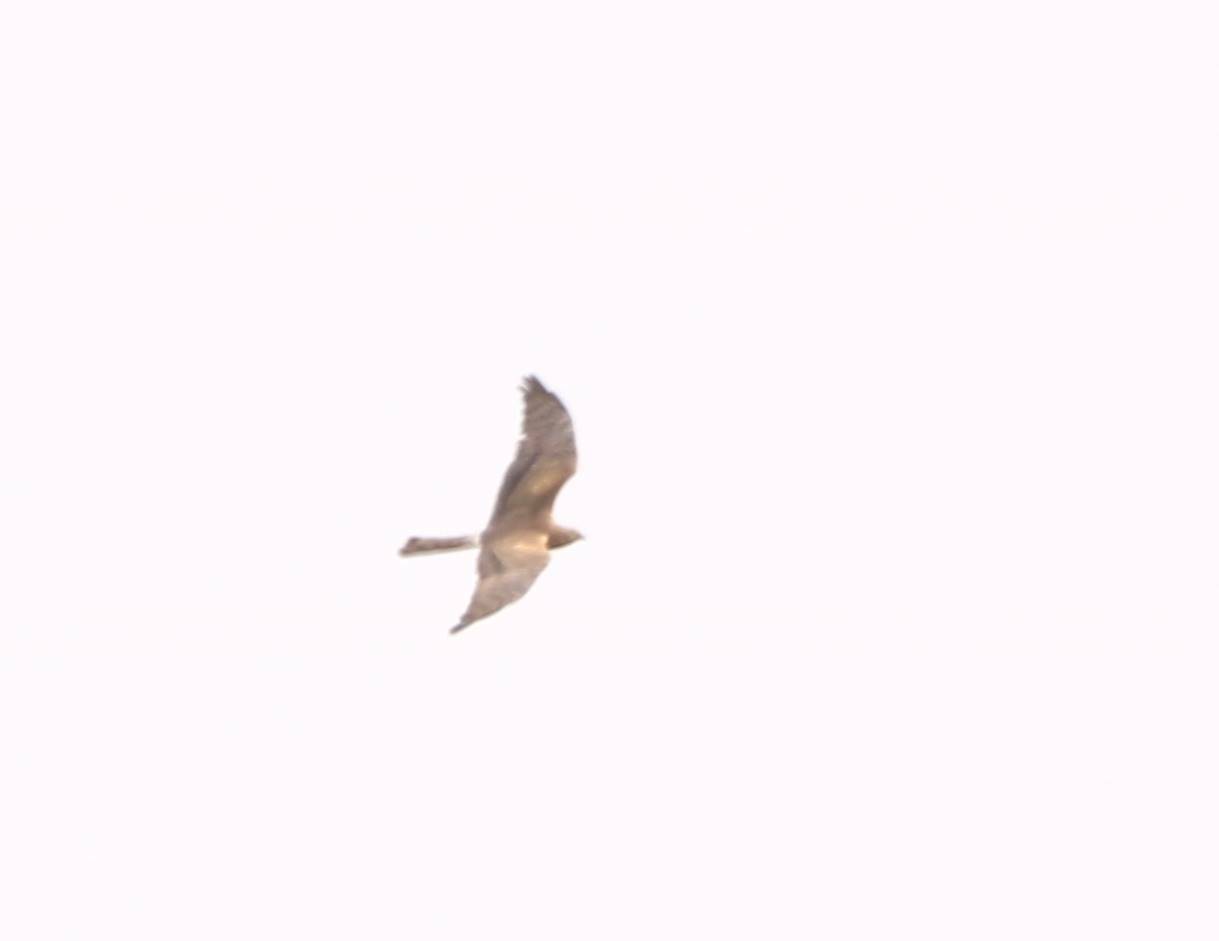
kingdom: Animalia
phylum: Chordata
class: Aves
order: Accipitriformes
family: Accipitridae
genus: Circus
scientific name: Circus pygargus
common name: Montagu's harrier
